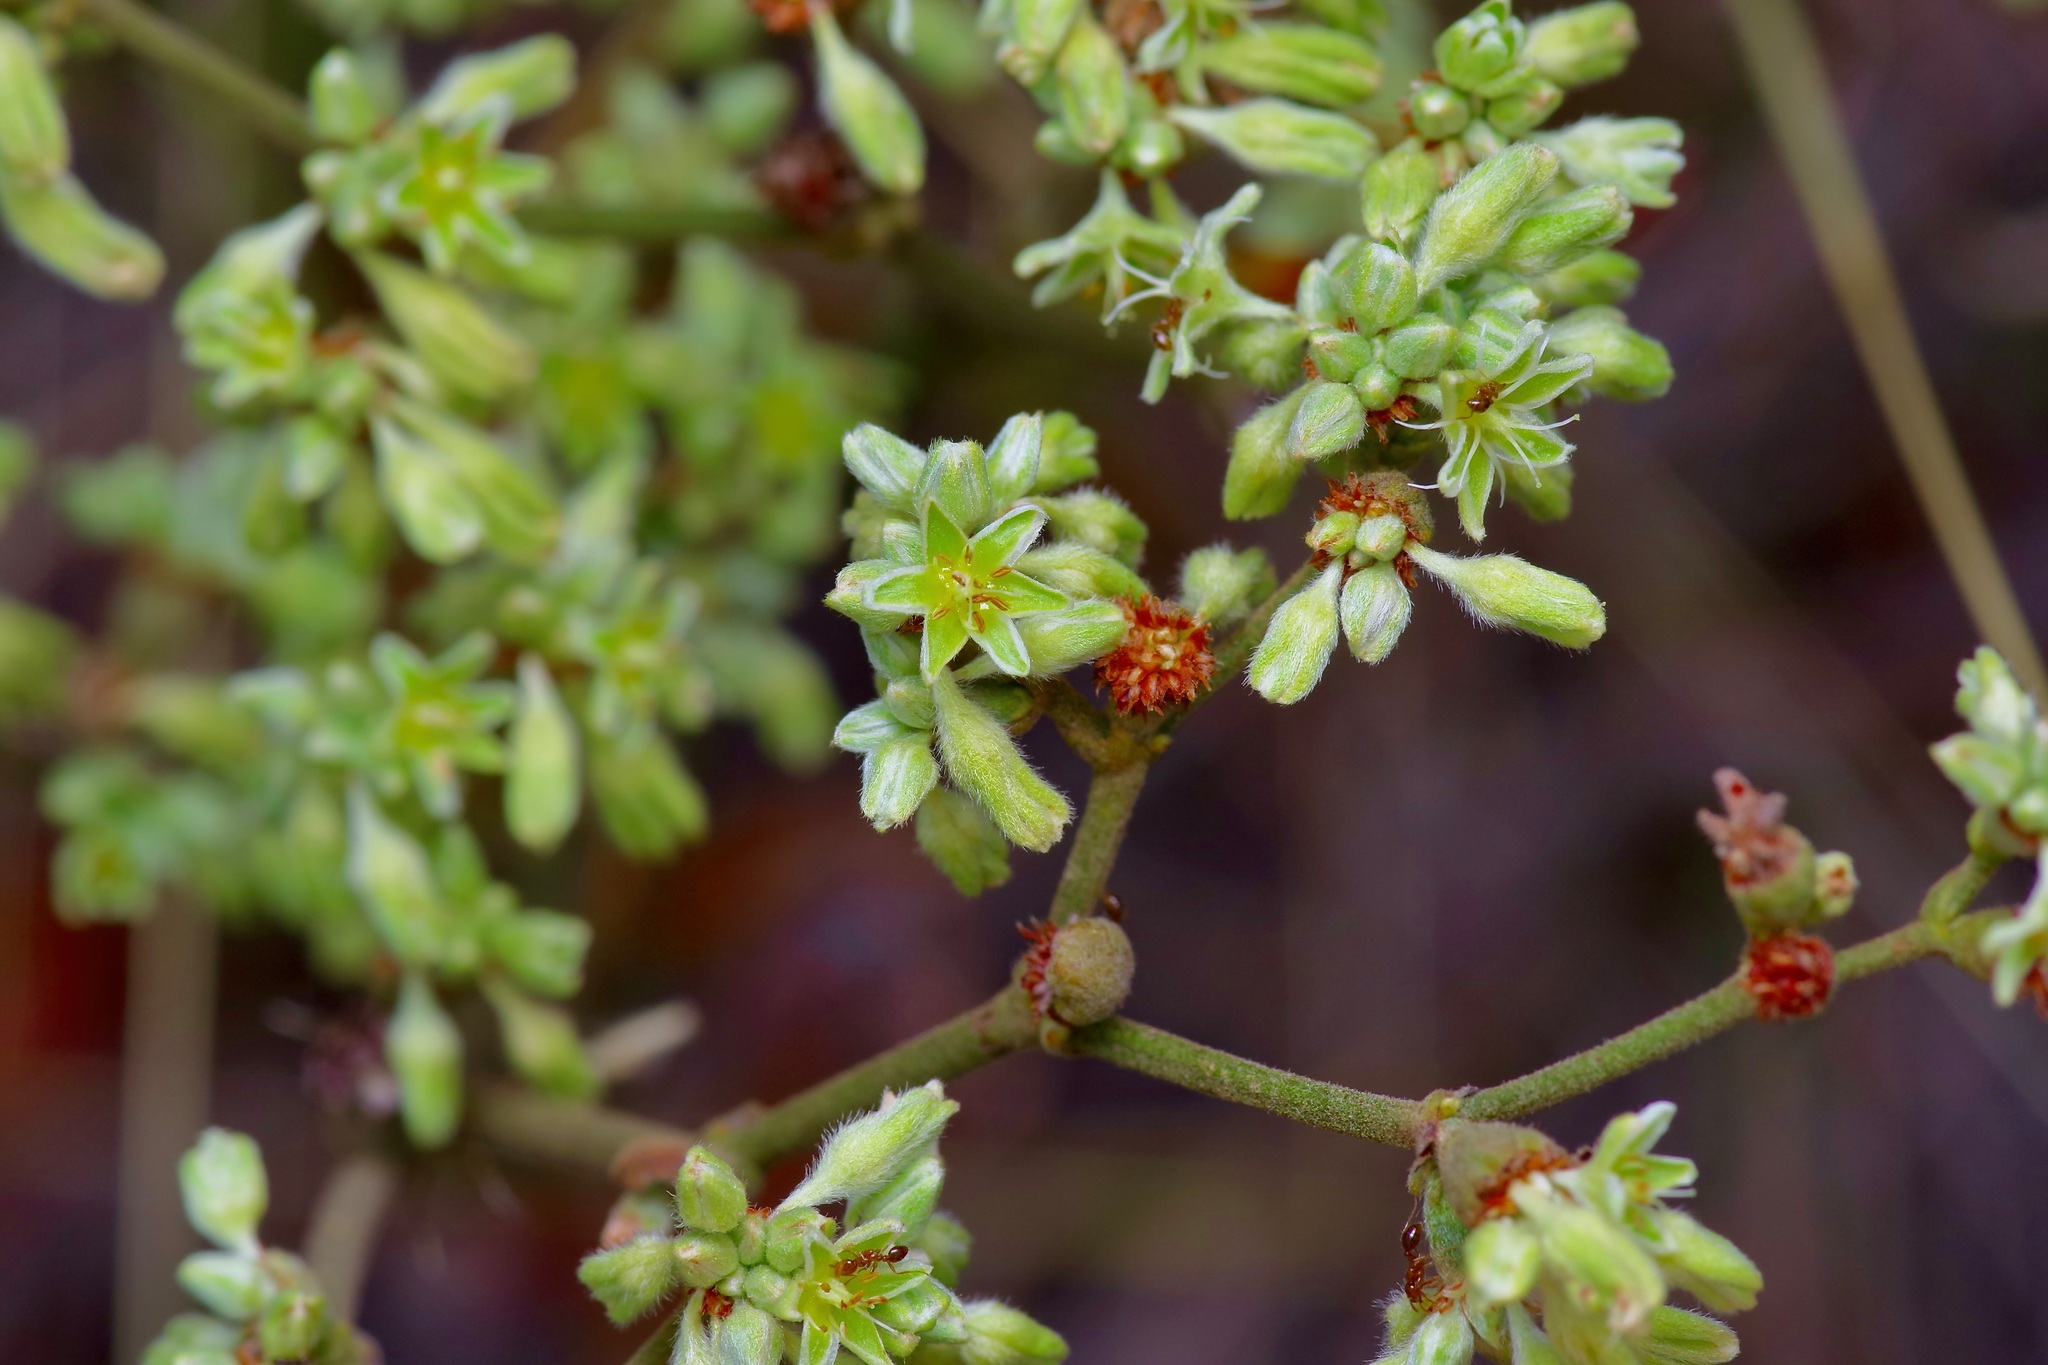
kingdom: Plantae
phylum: Tracheophyta
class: Magnoliopsida
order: Caryophyllales
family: Polygonaceae
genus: Eriogonum
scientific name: Eriogonum longifolium
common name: Longleaf wild buckwheat
